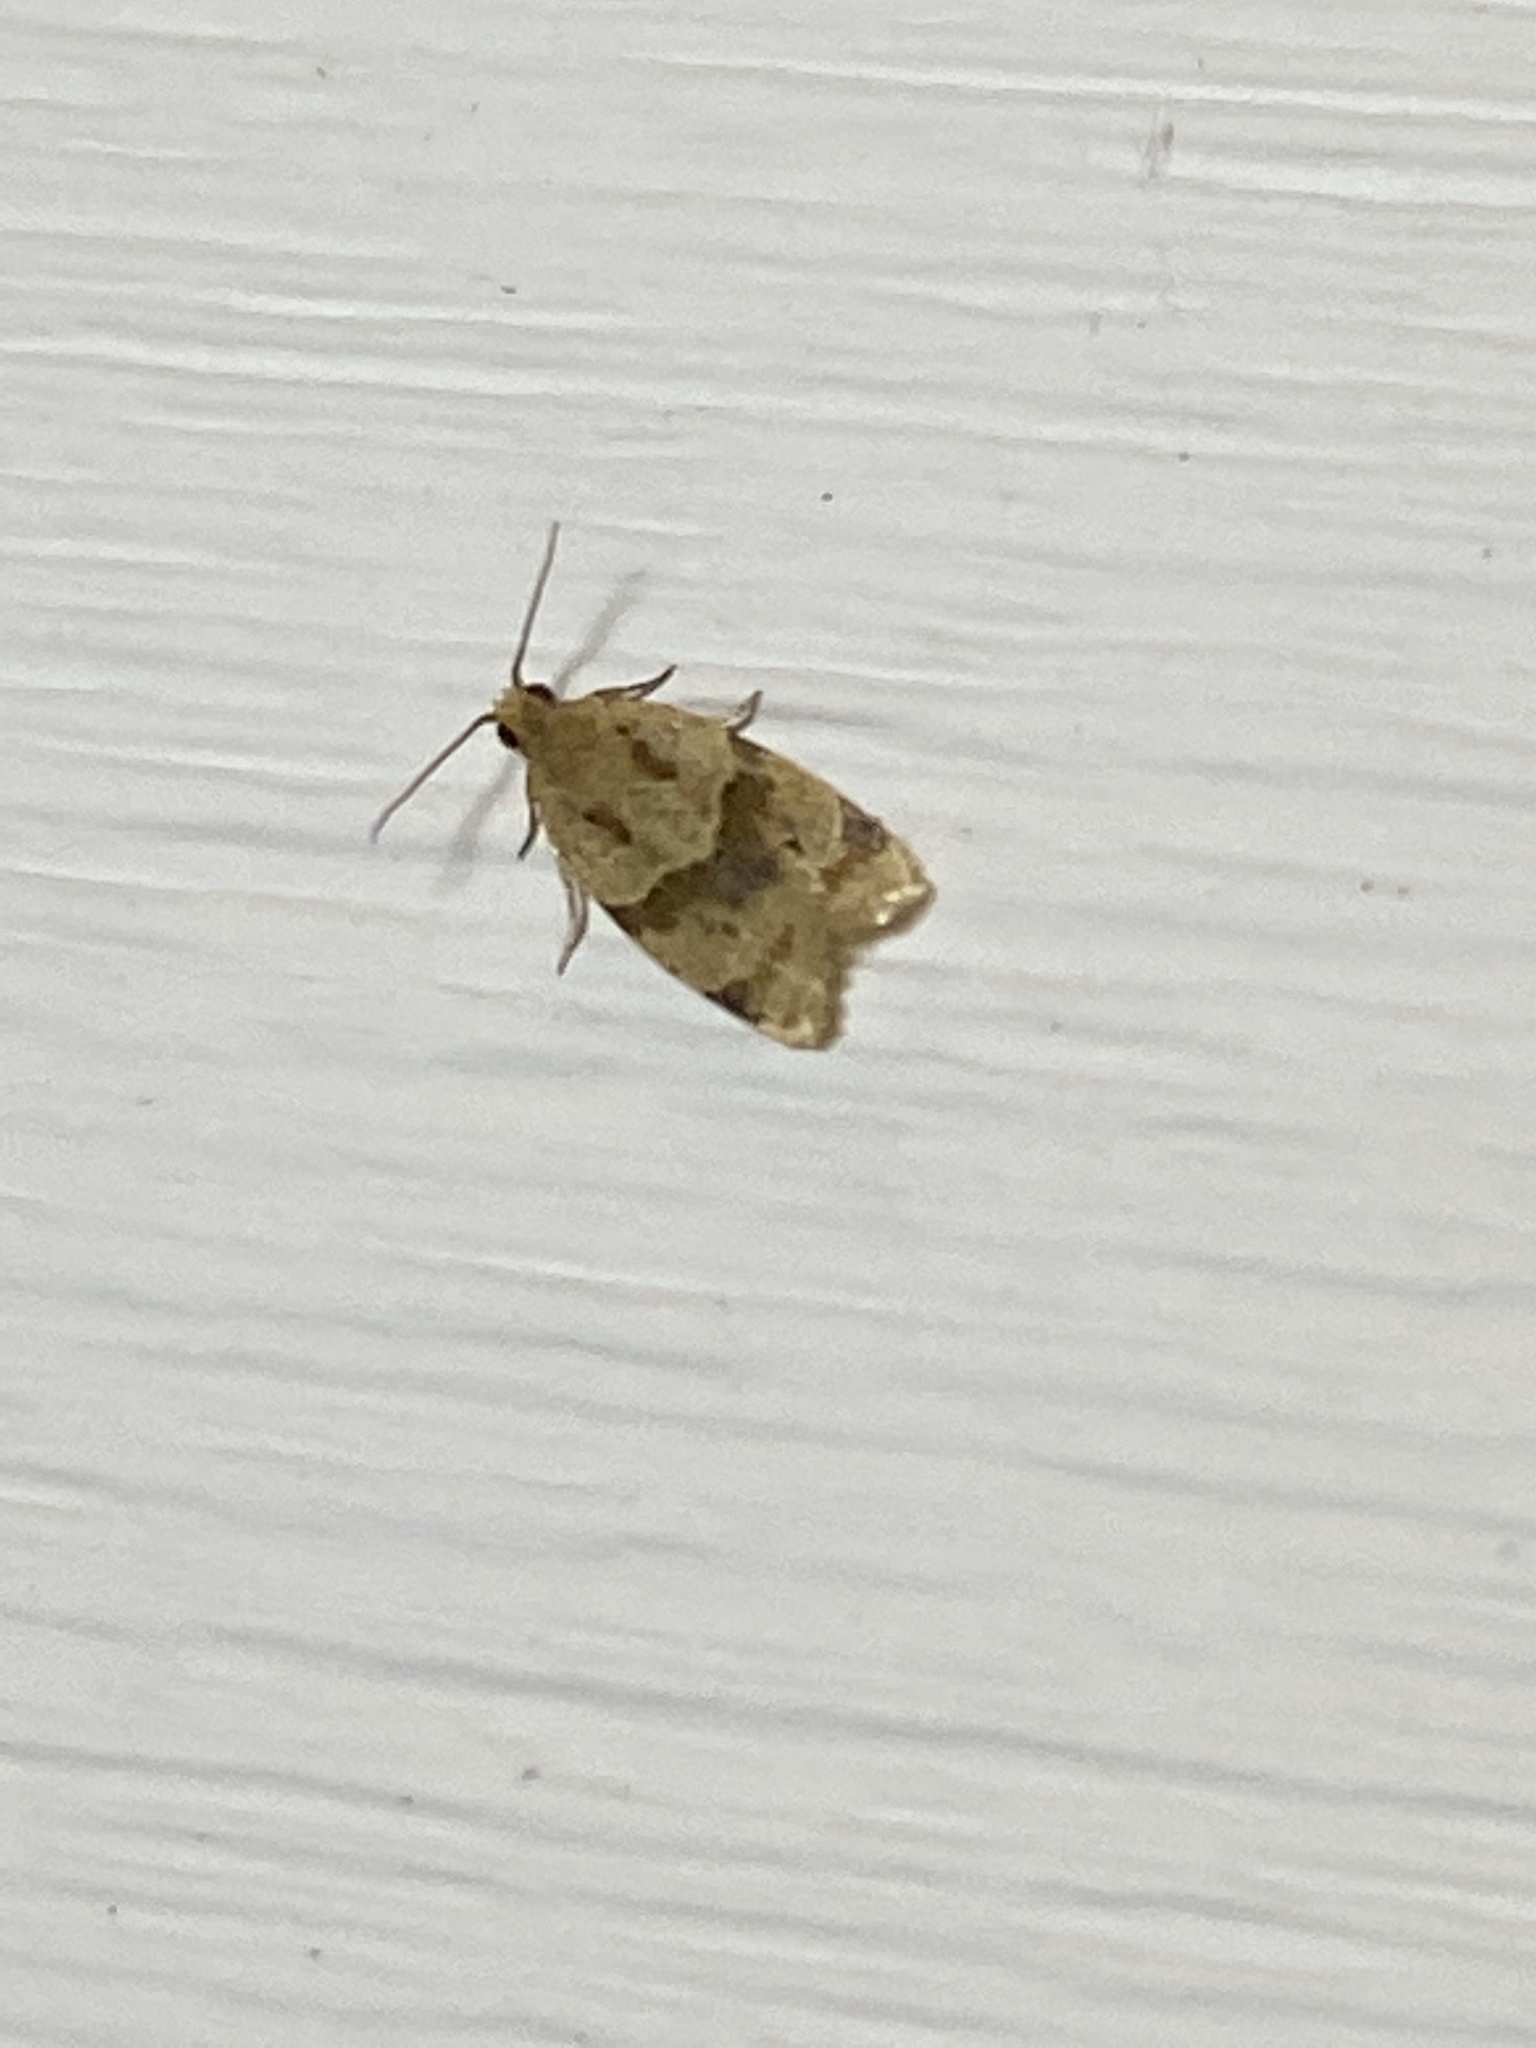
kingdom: Animalia
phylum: Arthropoda
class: Insecta
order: Lepidoptera
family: Tortricidae
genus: Clepsis
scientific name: Clepsis peritana
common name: Garden tortrix
